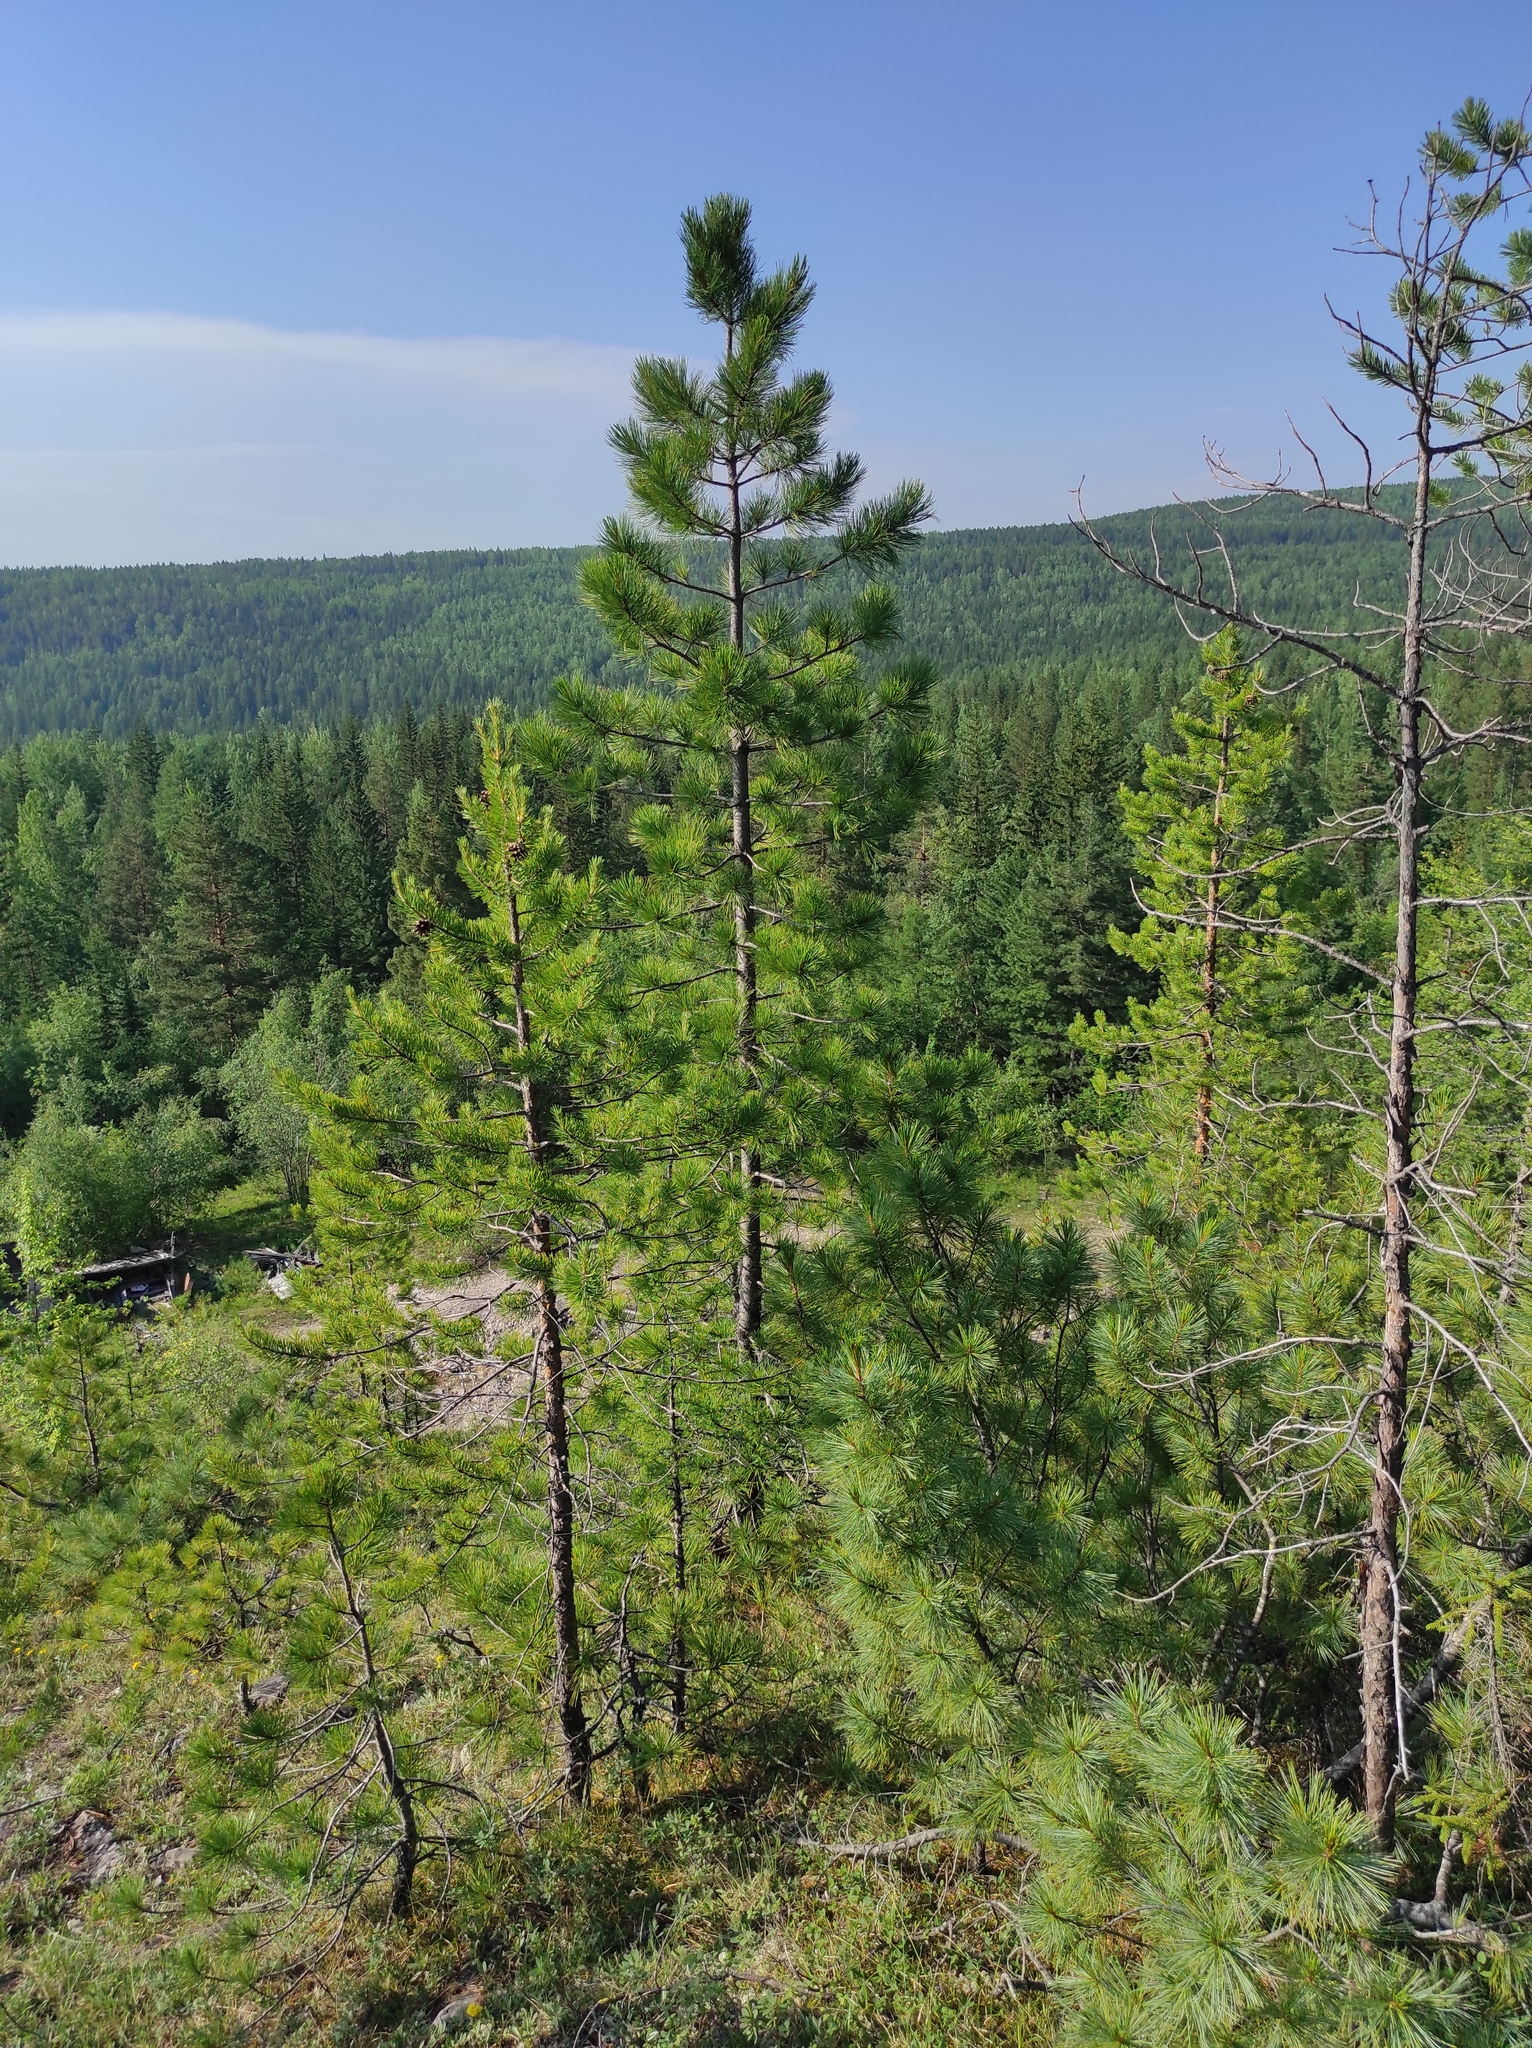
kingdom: Plantae
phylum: Tracheophyta
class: Pinopsida
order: Pinales
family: Pinaceae
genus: Pinus
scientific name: Pinus pumila
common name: Dwarf siberian pine
